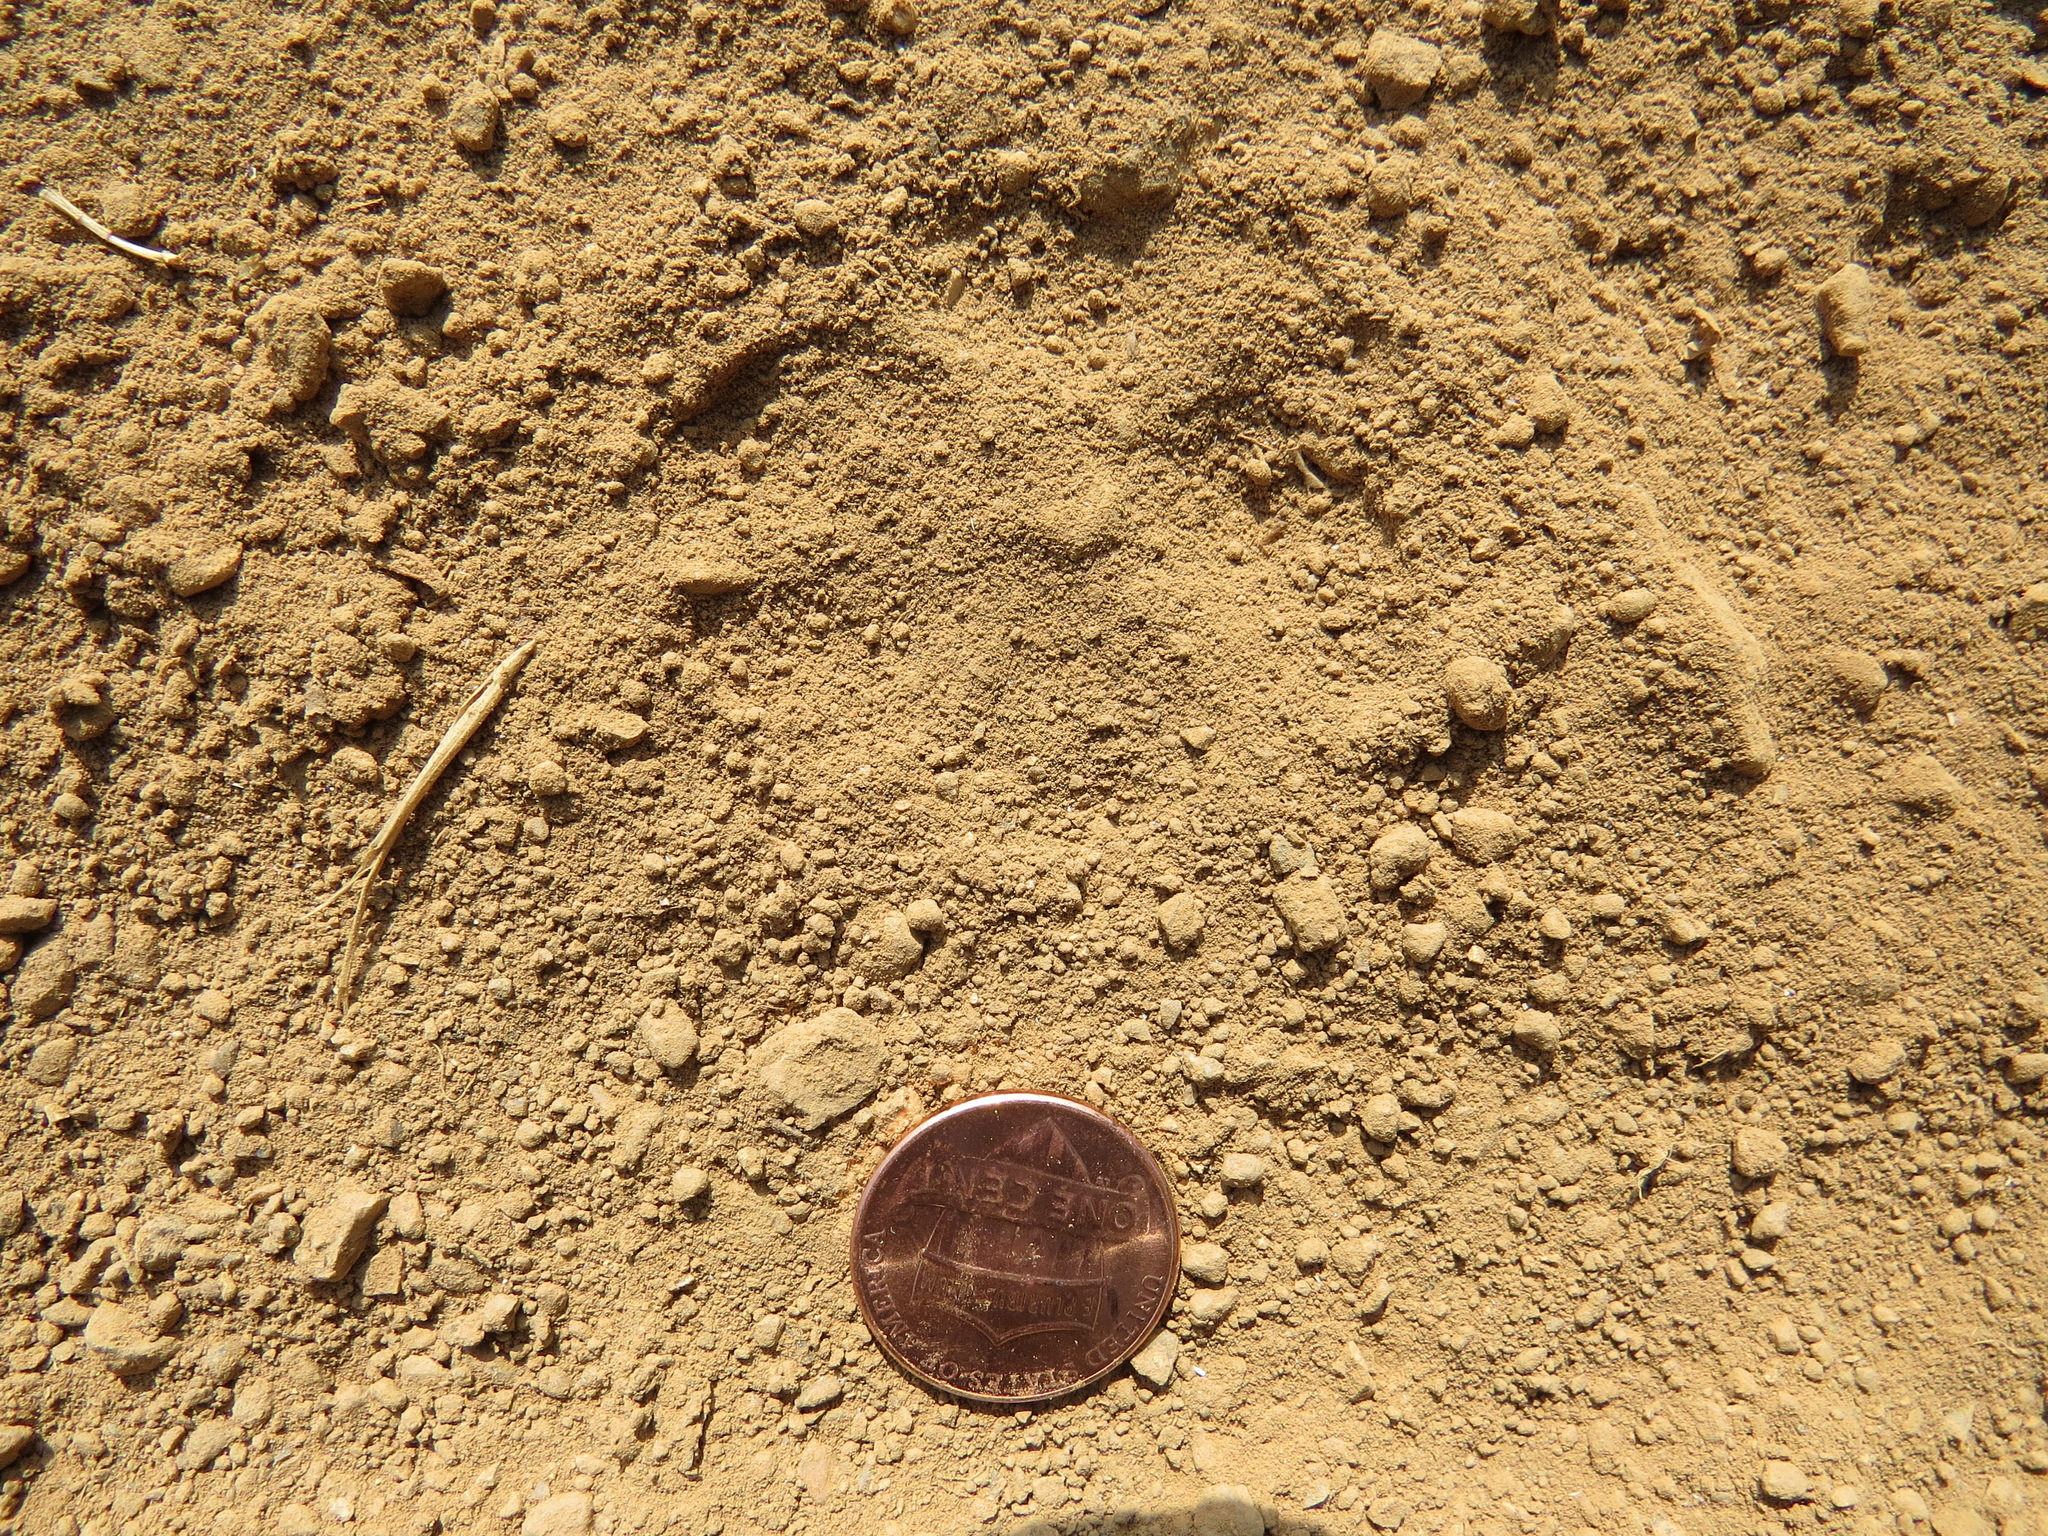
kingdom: Animalia
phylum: Chordata
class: Mammalia
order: Carnivora
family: Canidae
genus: Urocyon
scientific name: Urocyon cinereoargenteus
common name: Gray fox
